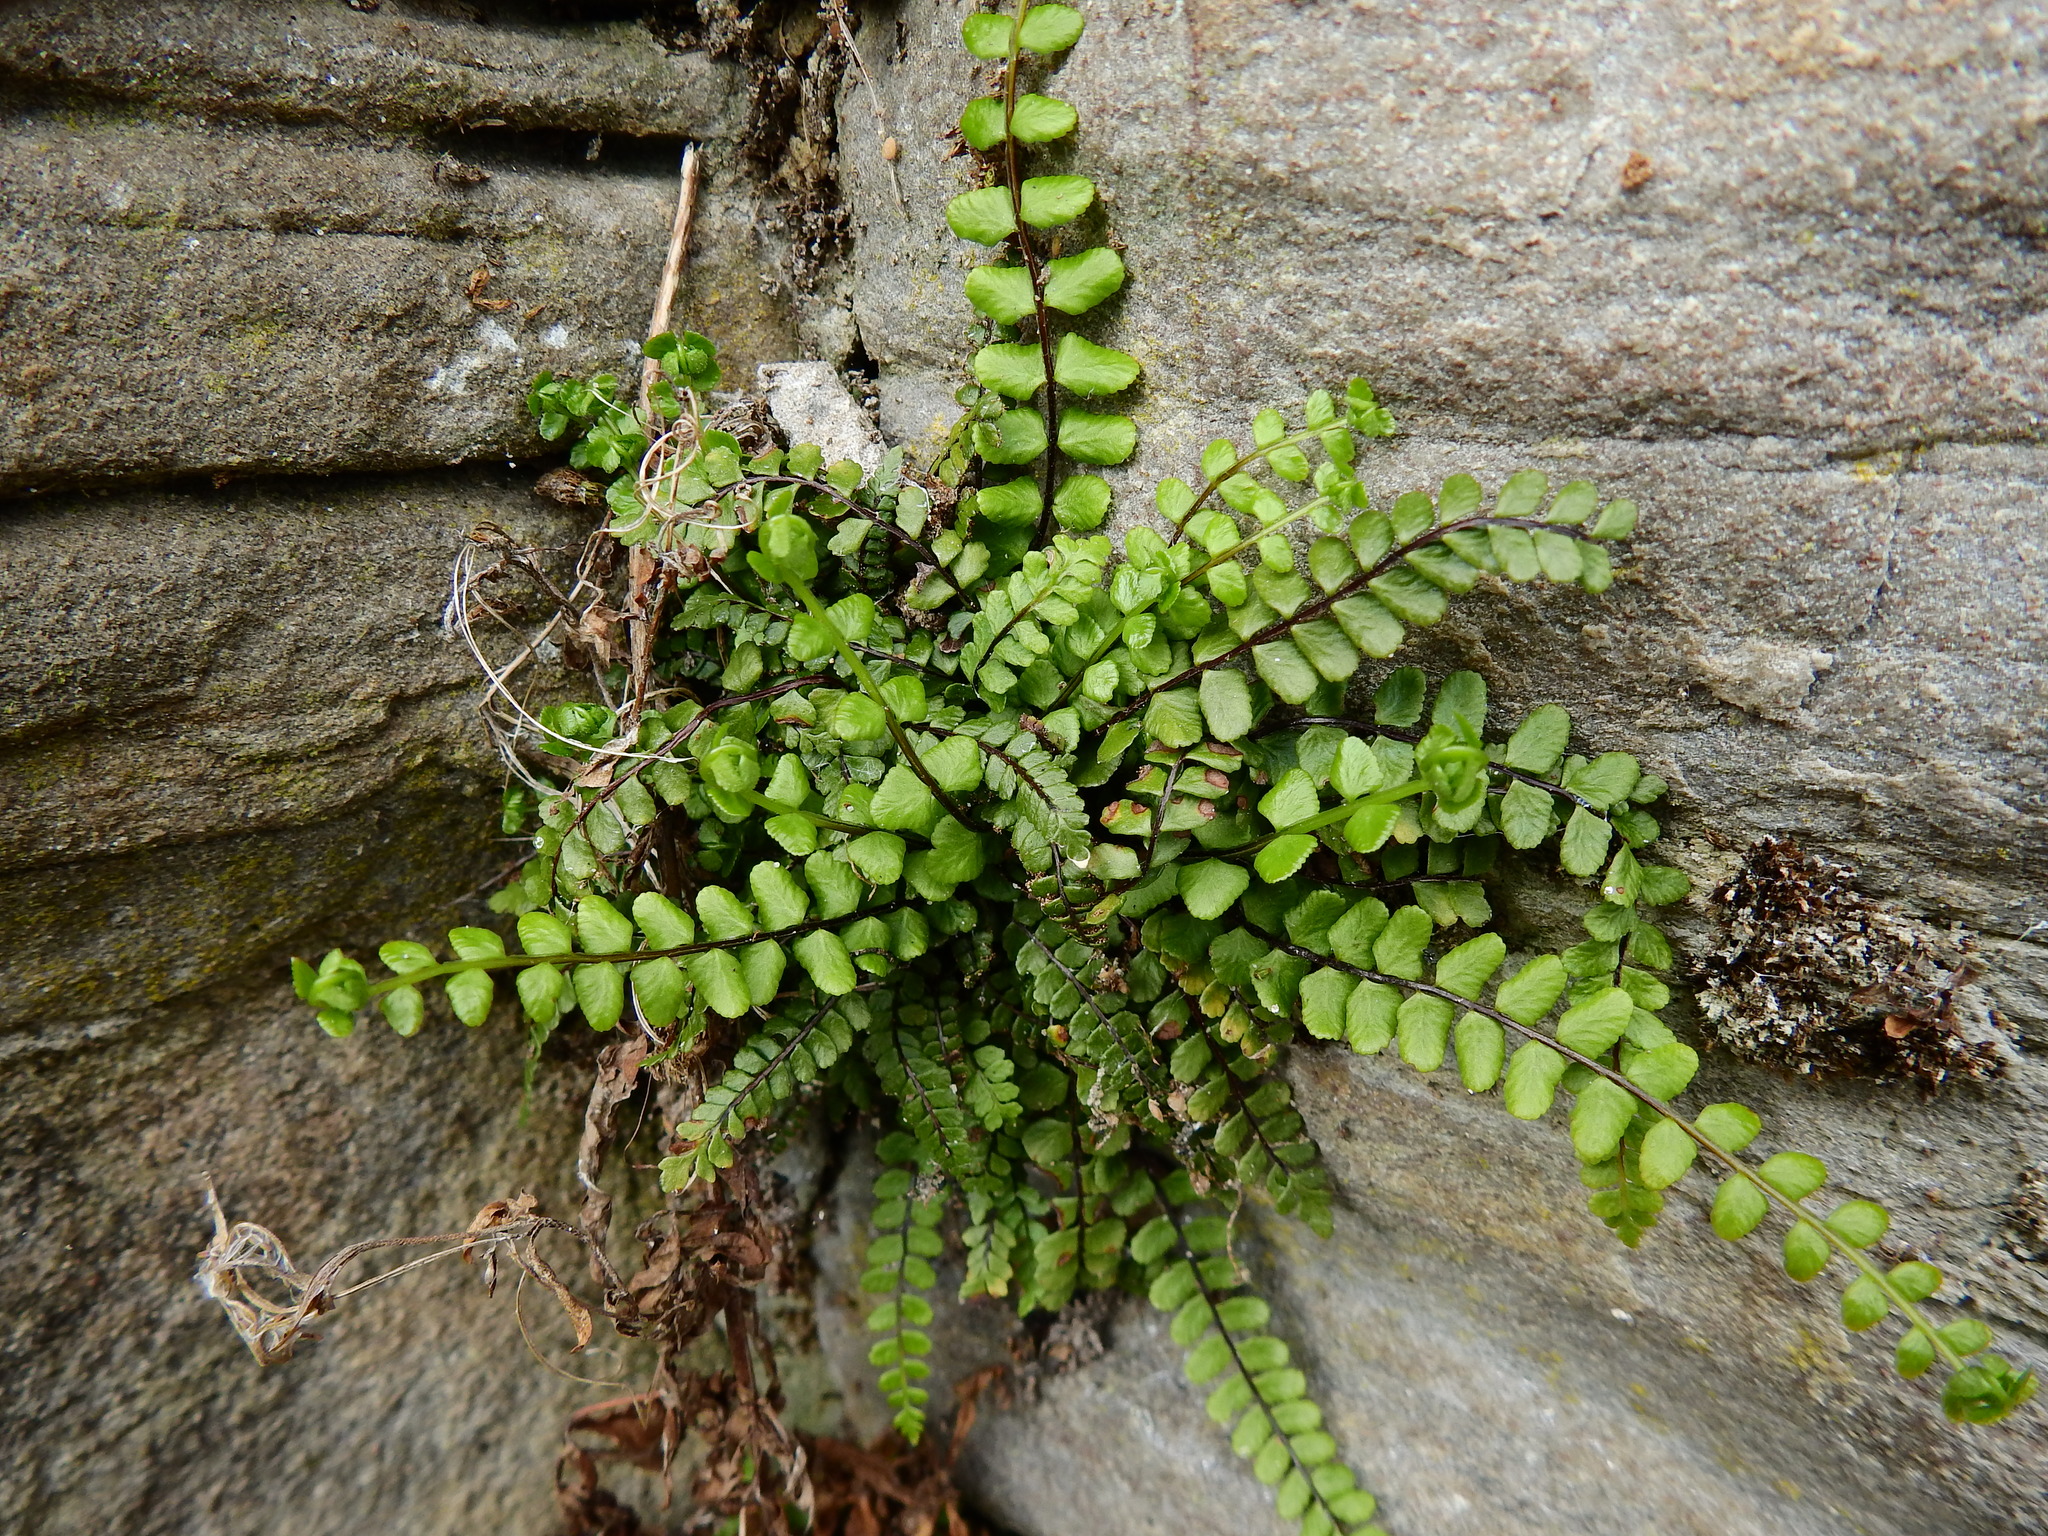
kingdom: Plantae
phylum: Tracheophyta
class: Polypodiopsida
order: Polypodiales
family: Aspleniaceae
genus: Asplenium
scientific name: Asplenium trichomanes
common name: Maidenhair spleenwort
